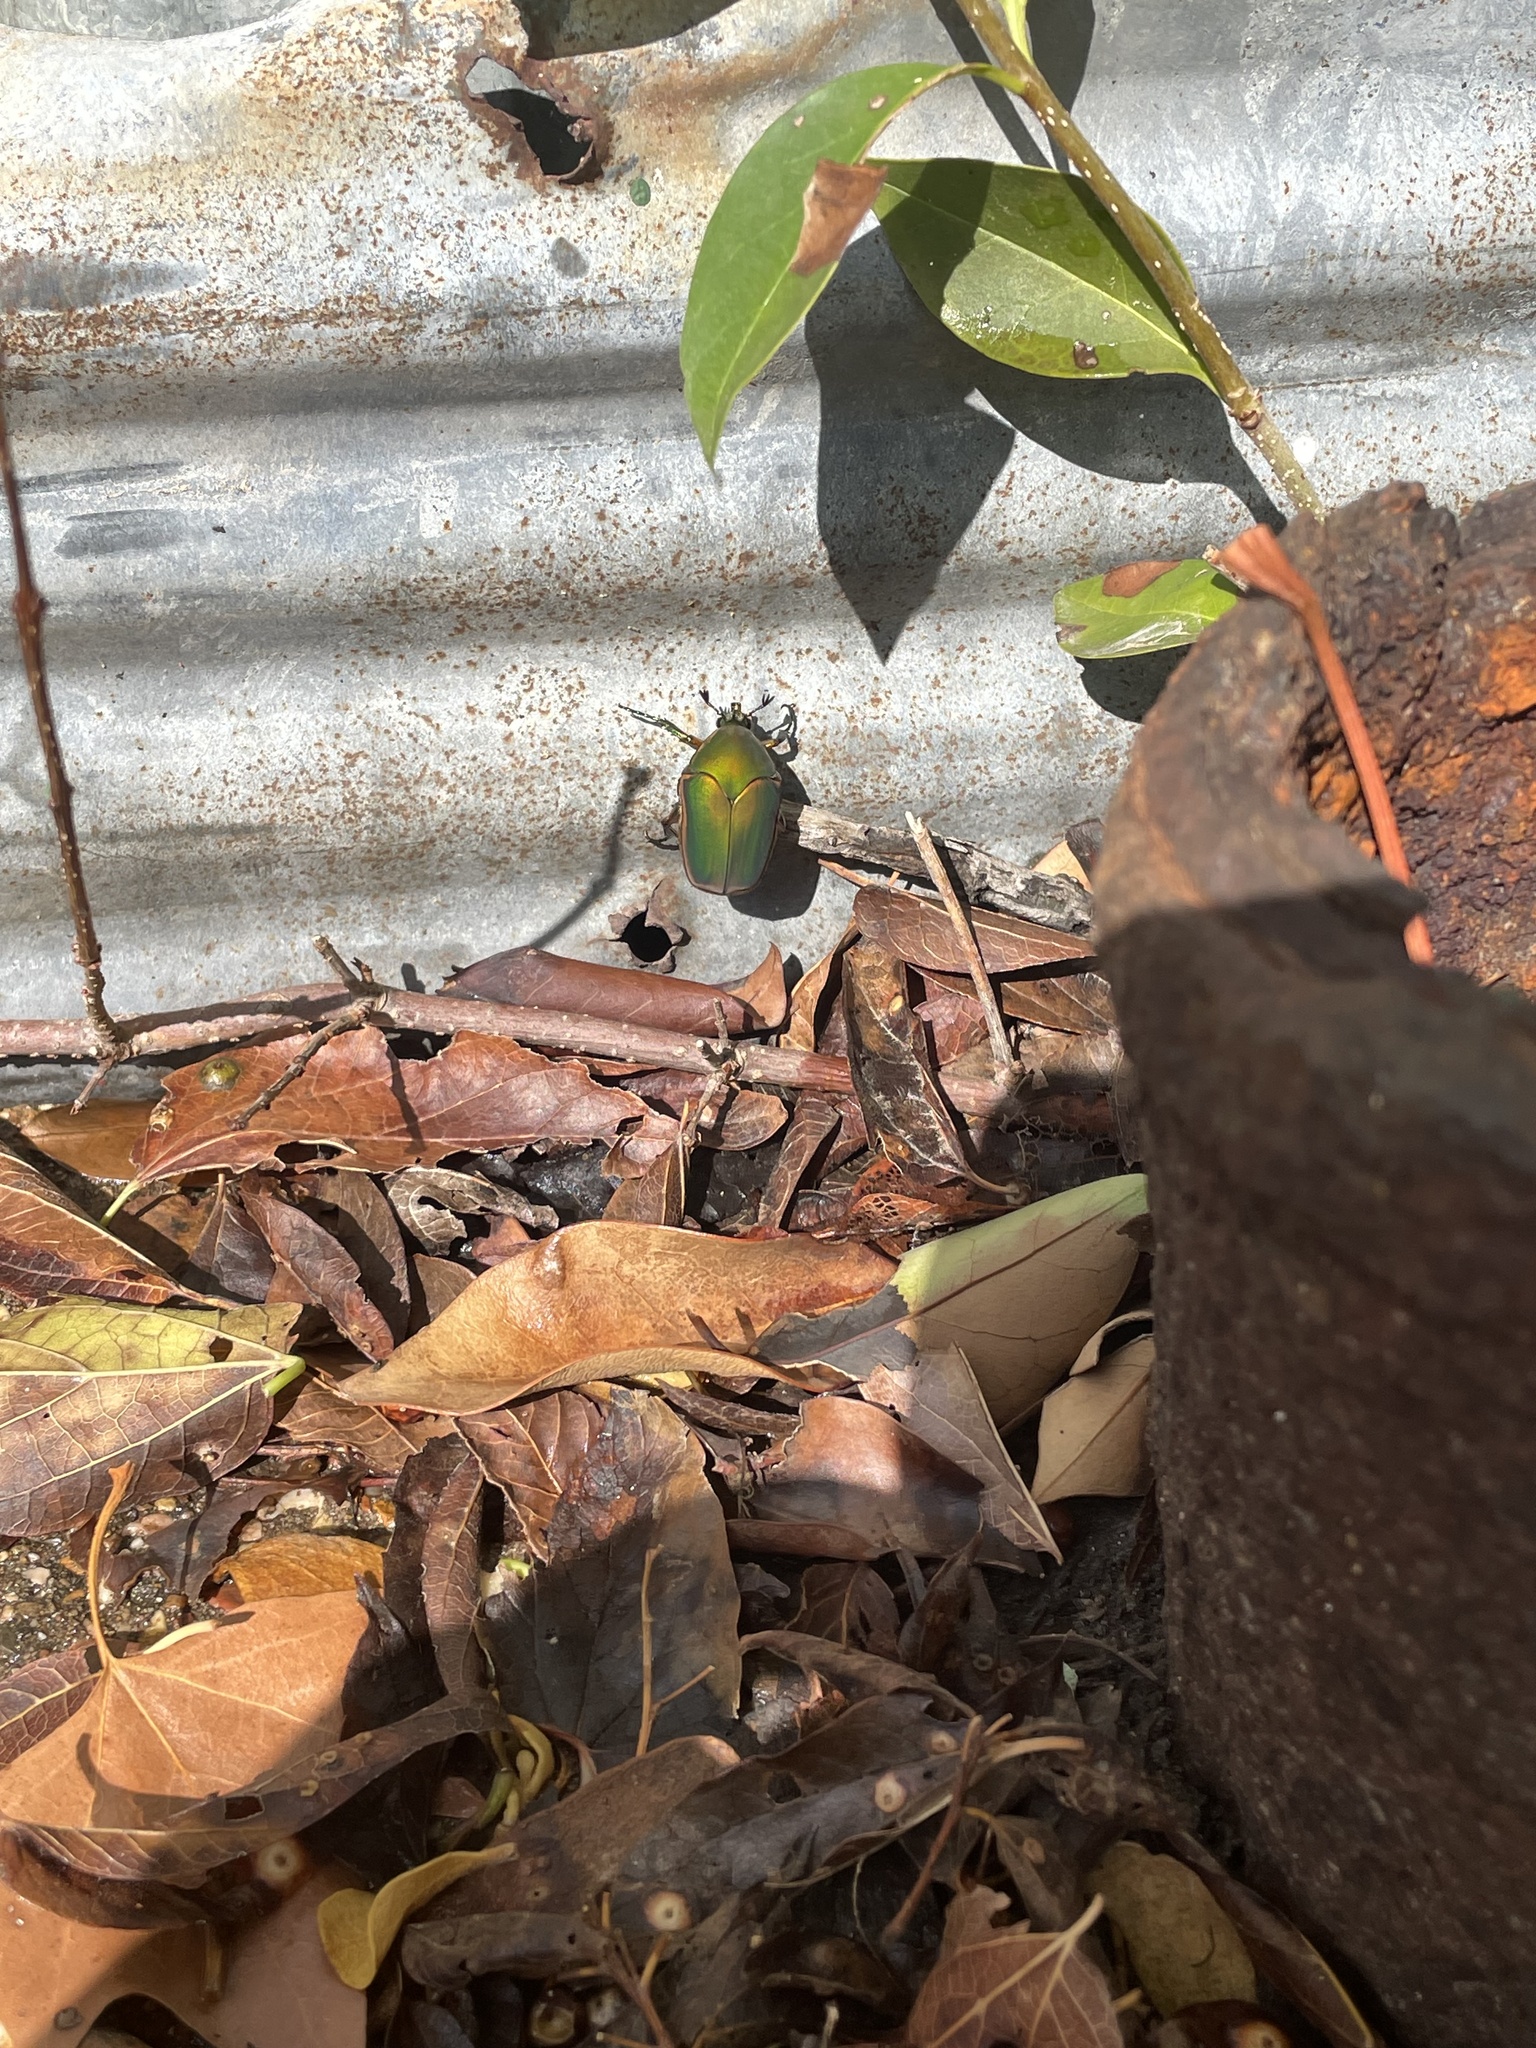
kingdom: Animalia
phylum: Arthropoda
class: Insecta
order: Coleoptera
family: Scarabaeidae
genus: Cotinis
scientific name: Cotinis nitida
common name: Common green june beetle
